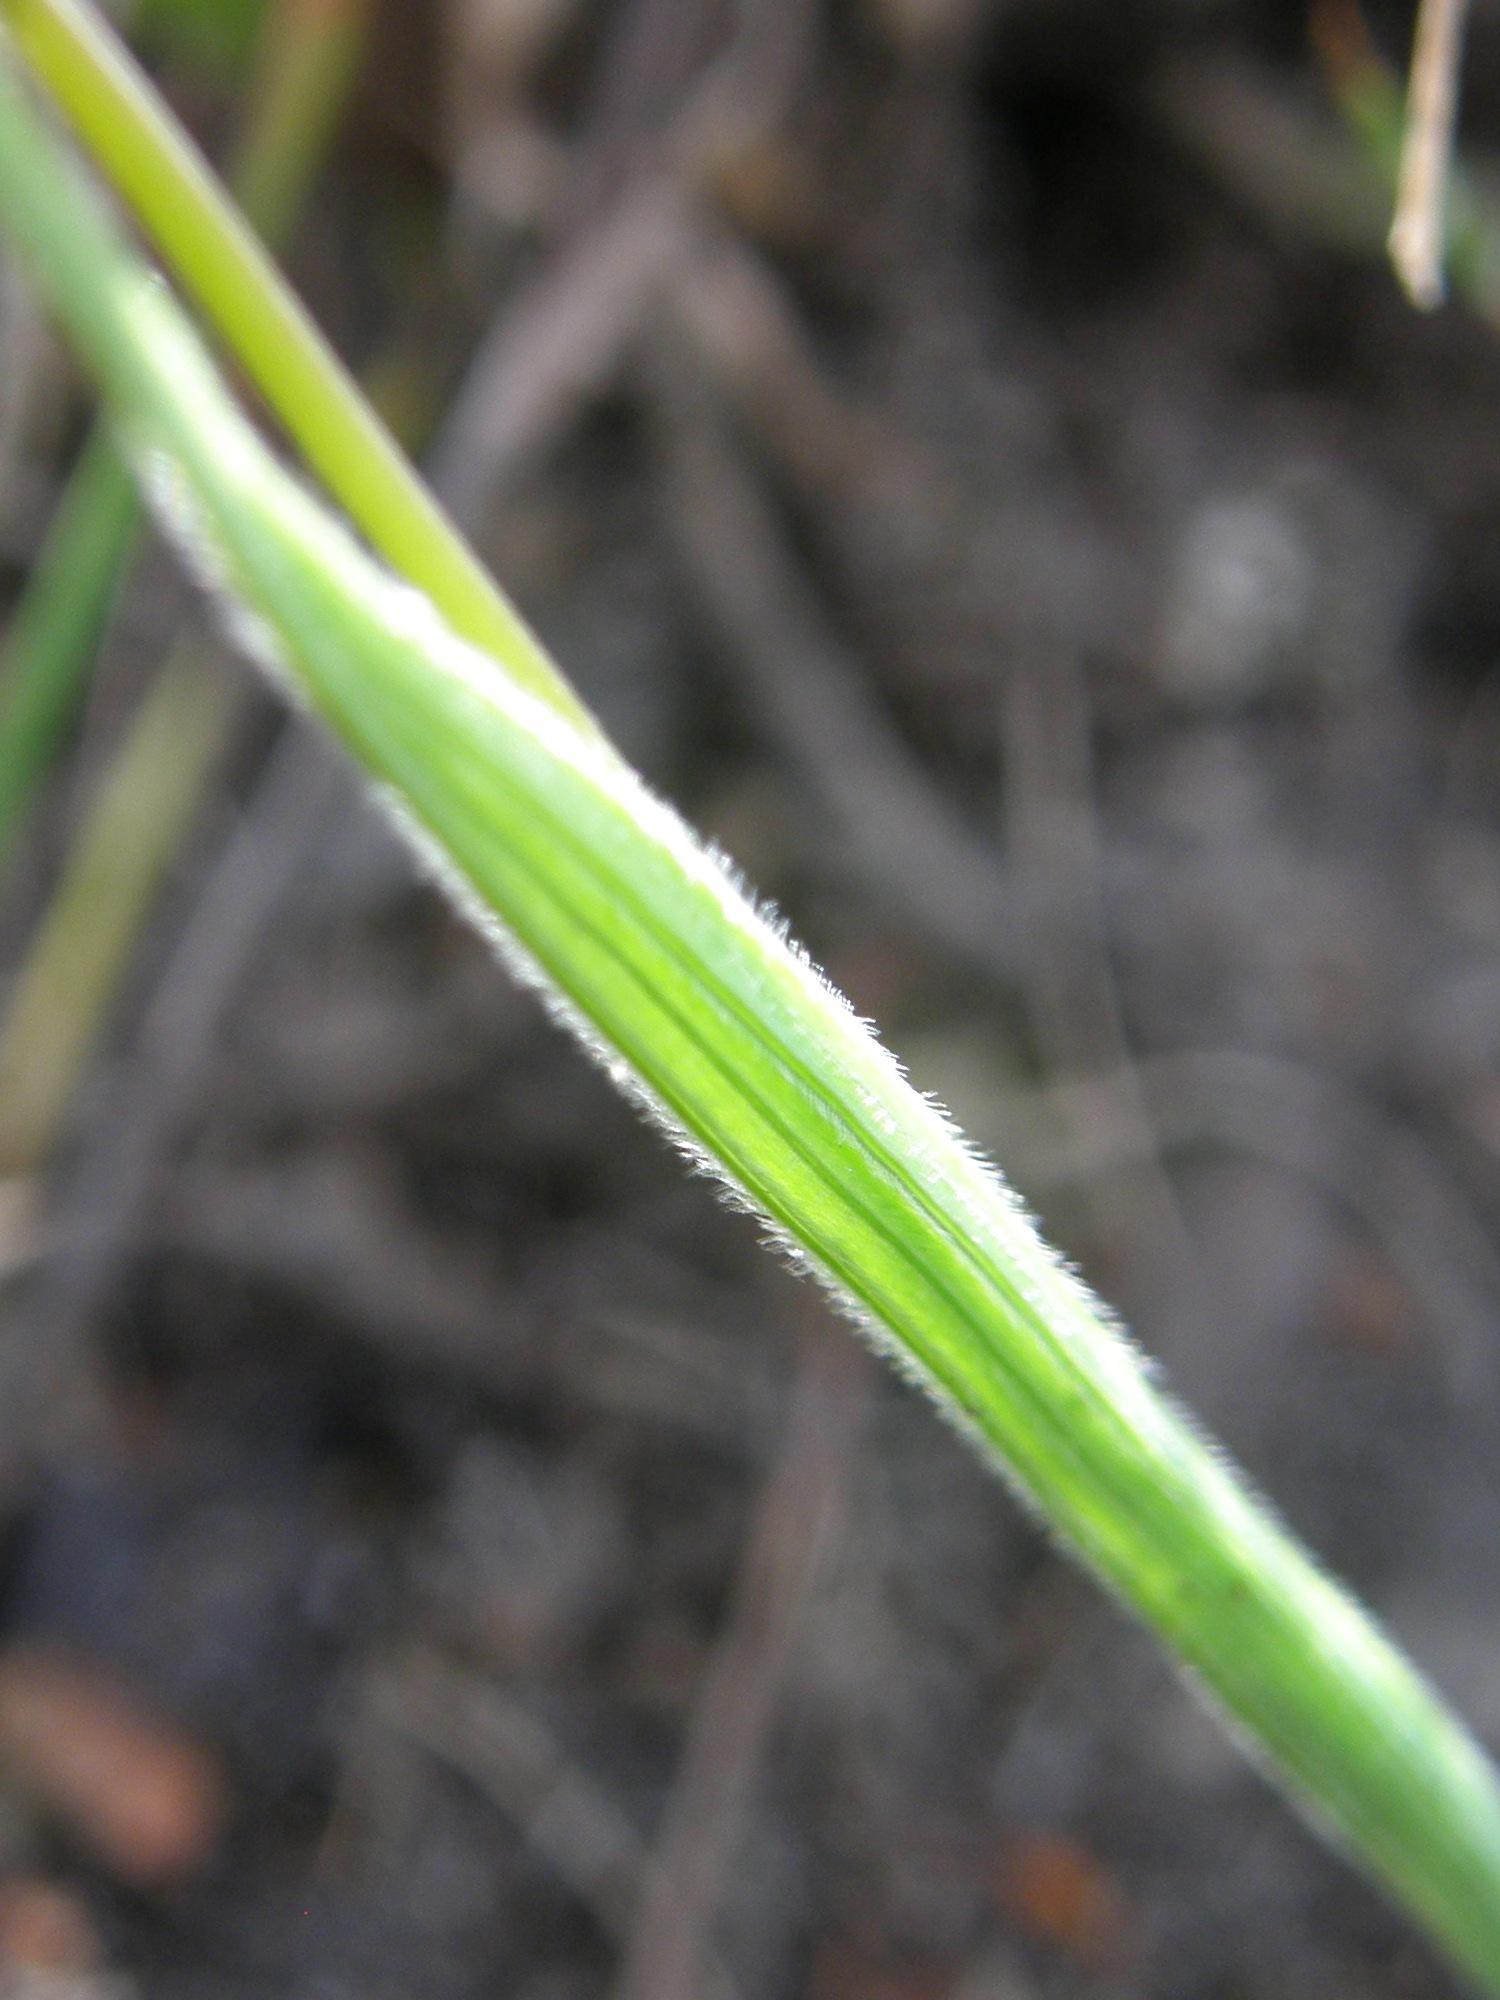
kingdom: Plantae
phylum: Tracheophyta
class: Liliopsida
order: Asparagales
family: Iridaceae
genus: Geissorhiza
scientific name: Geissorhiza inflexa
